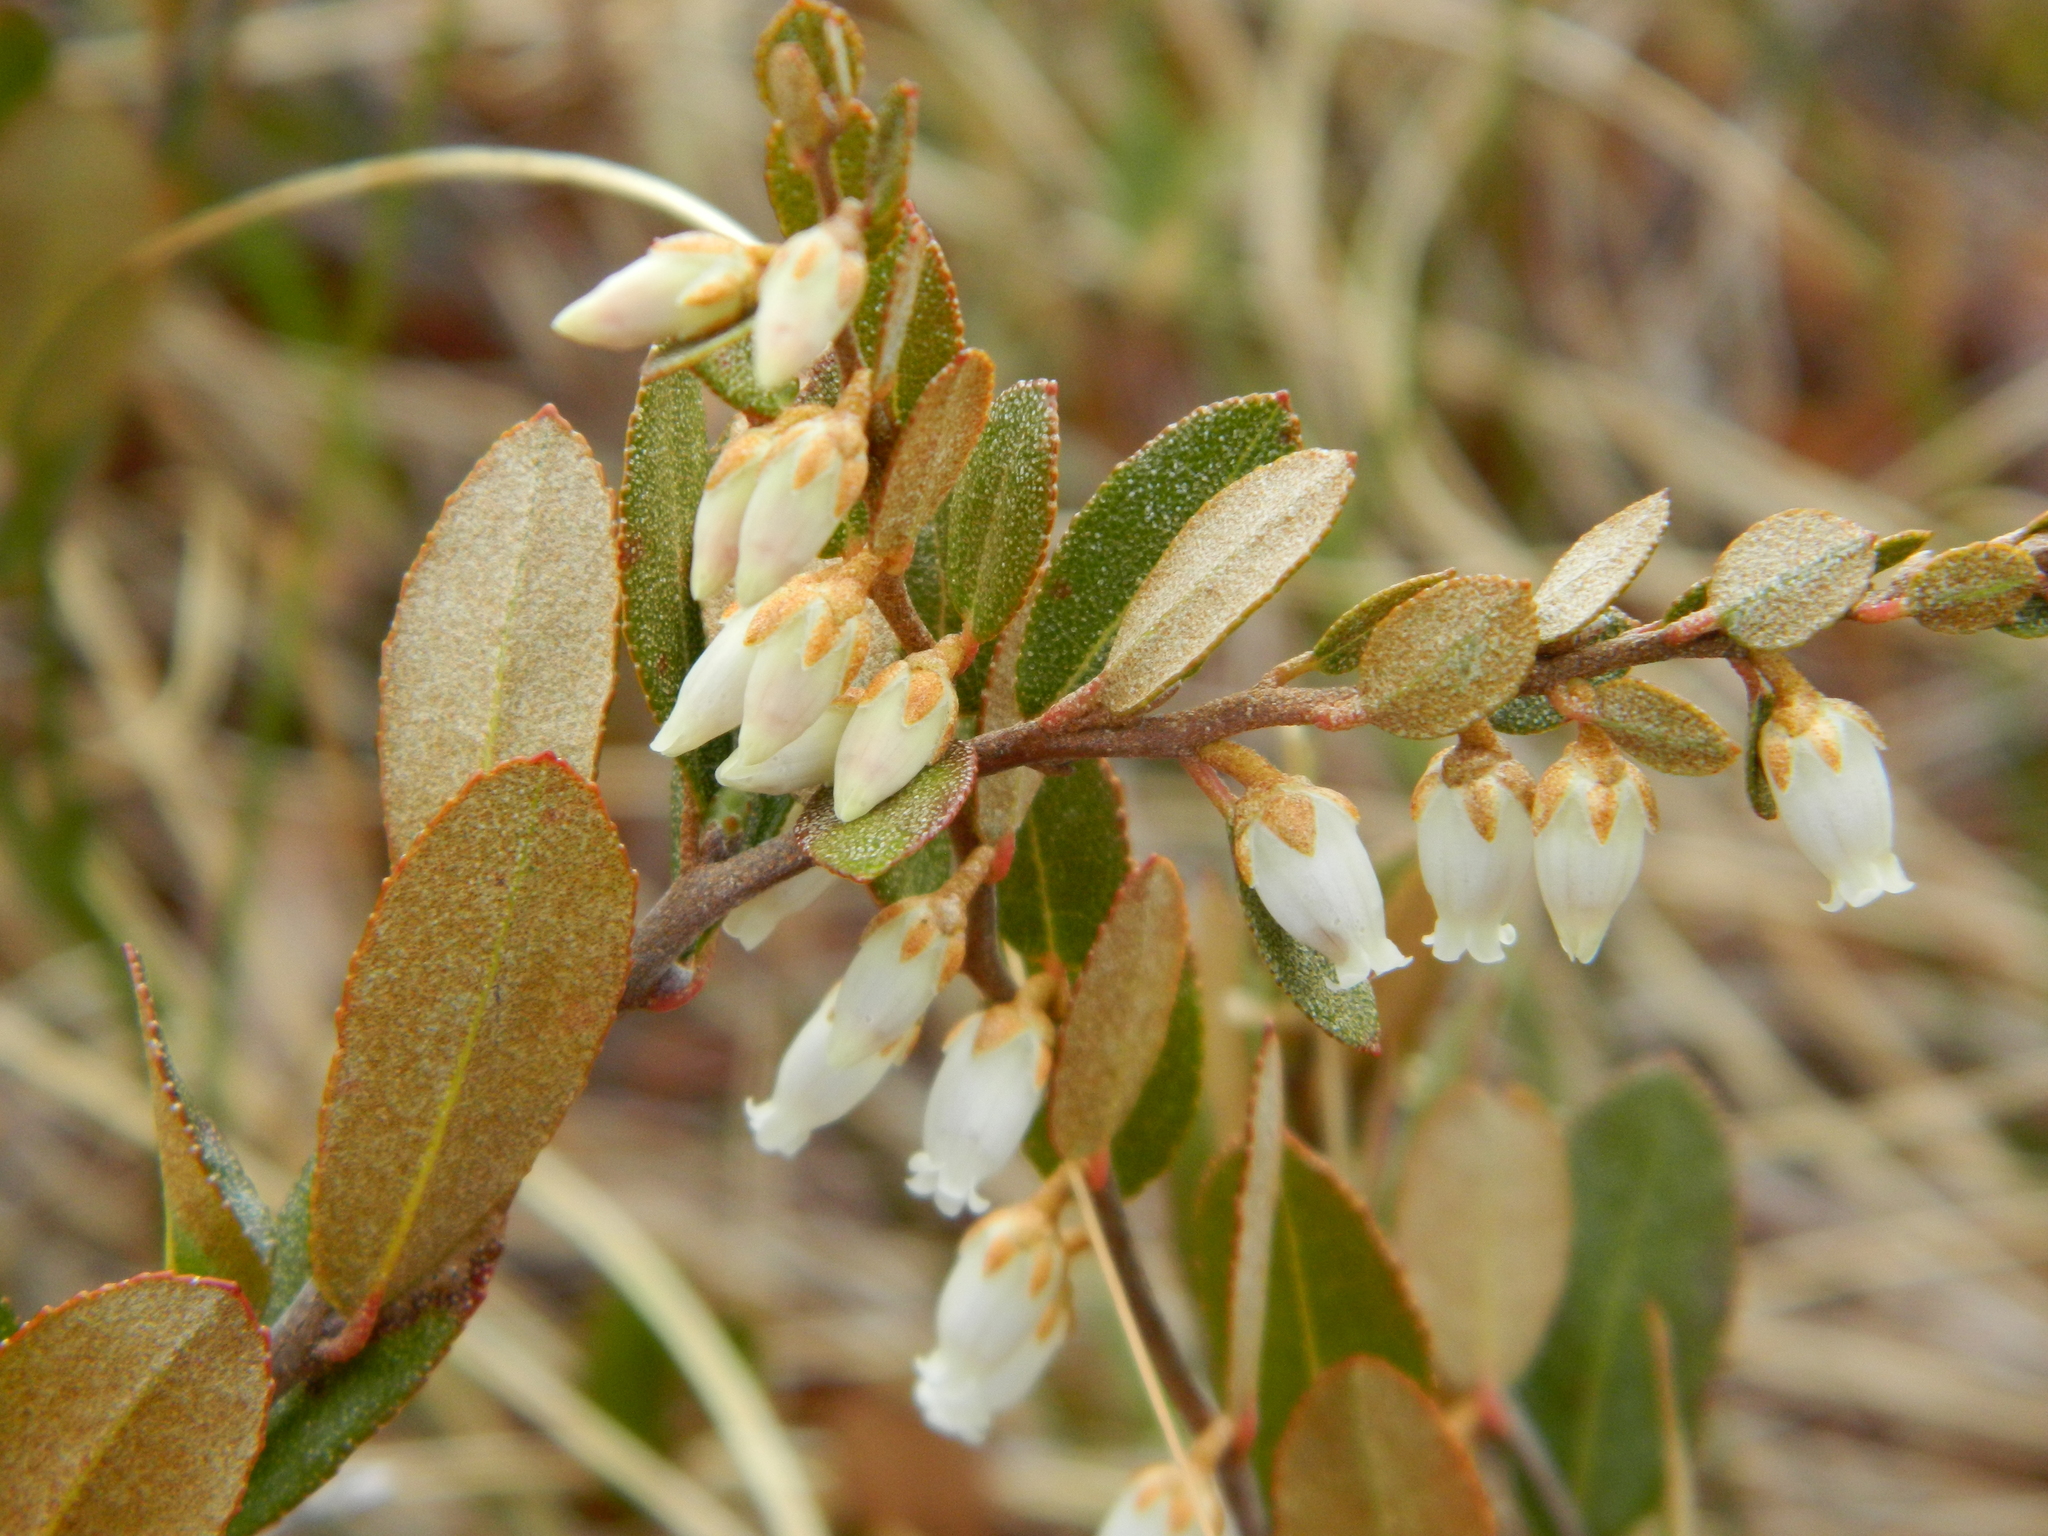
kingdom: Plantae
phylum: Tracheophyta
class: Magnoliopsida
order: Ericales
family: Ericaceae
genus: Chamaedaphne
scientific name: Chamaedaphne calyculata
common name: Leatherleaf
